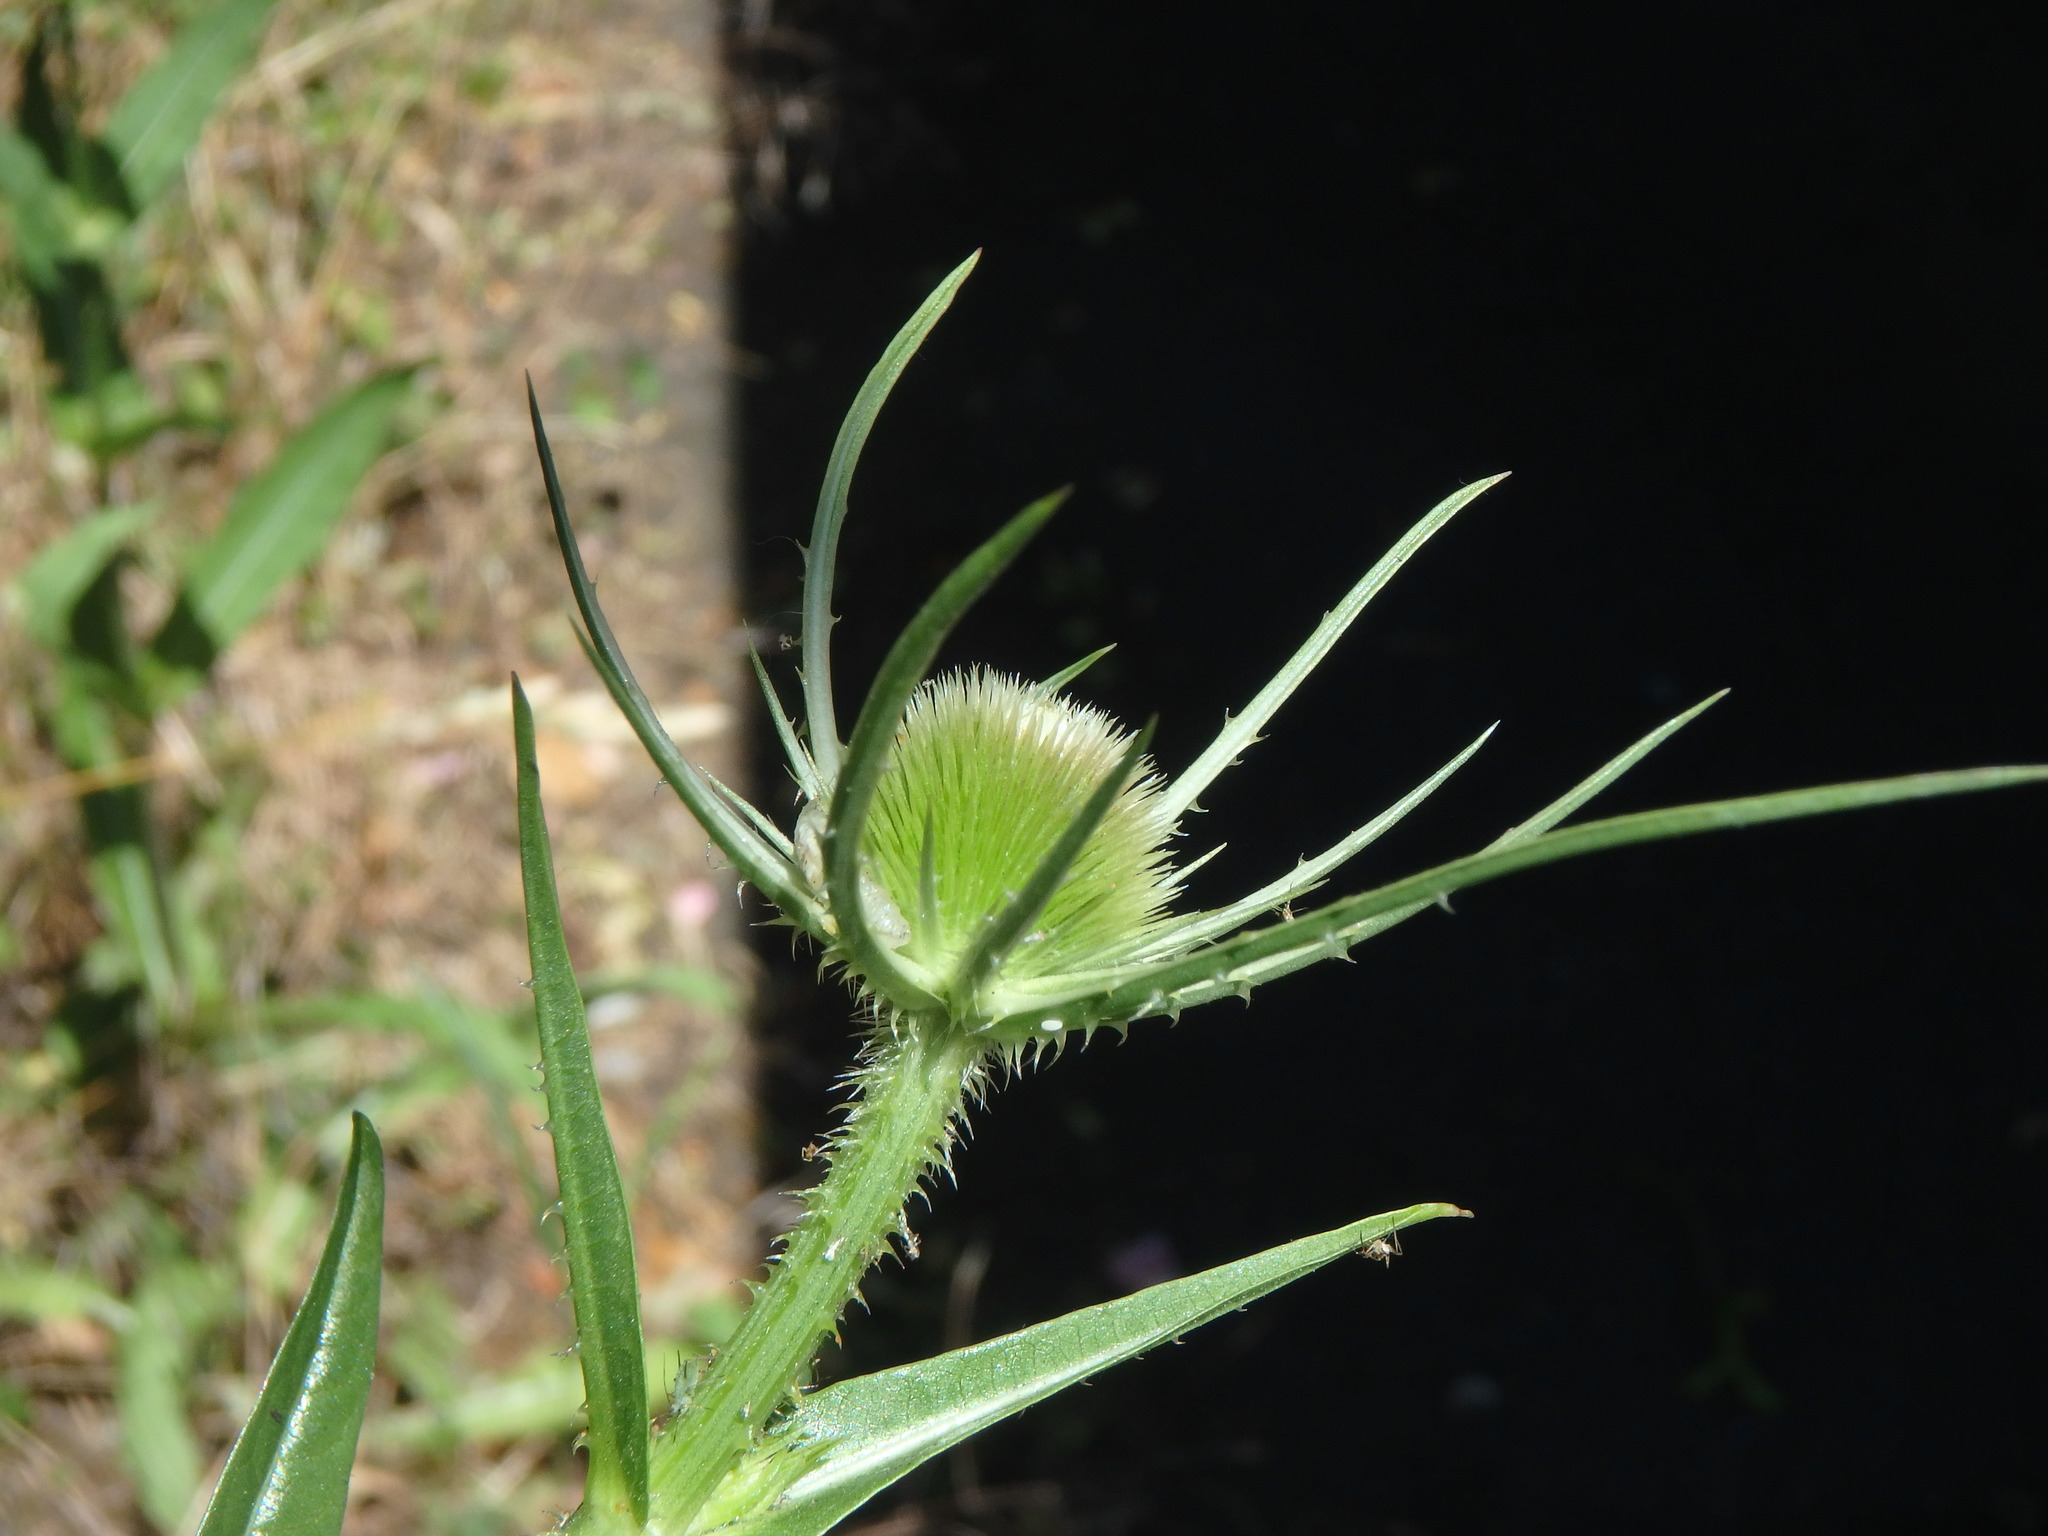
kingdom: Plantae
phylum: Tracheophyta
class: Magnoliopsida
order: Dipsacales
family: Caprifoliaceae
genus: Dipsacus
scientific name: Dipsacus fullonum
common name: Teasel
